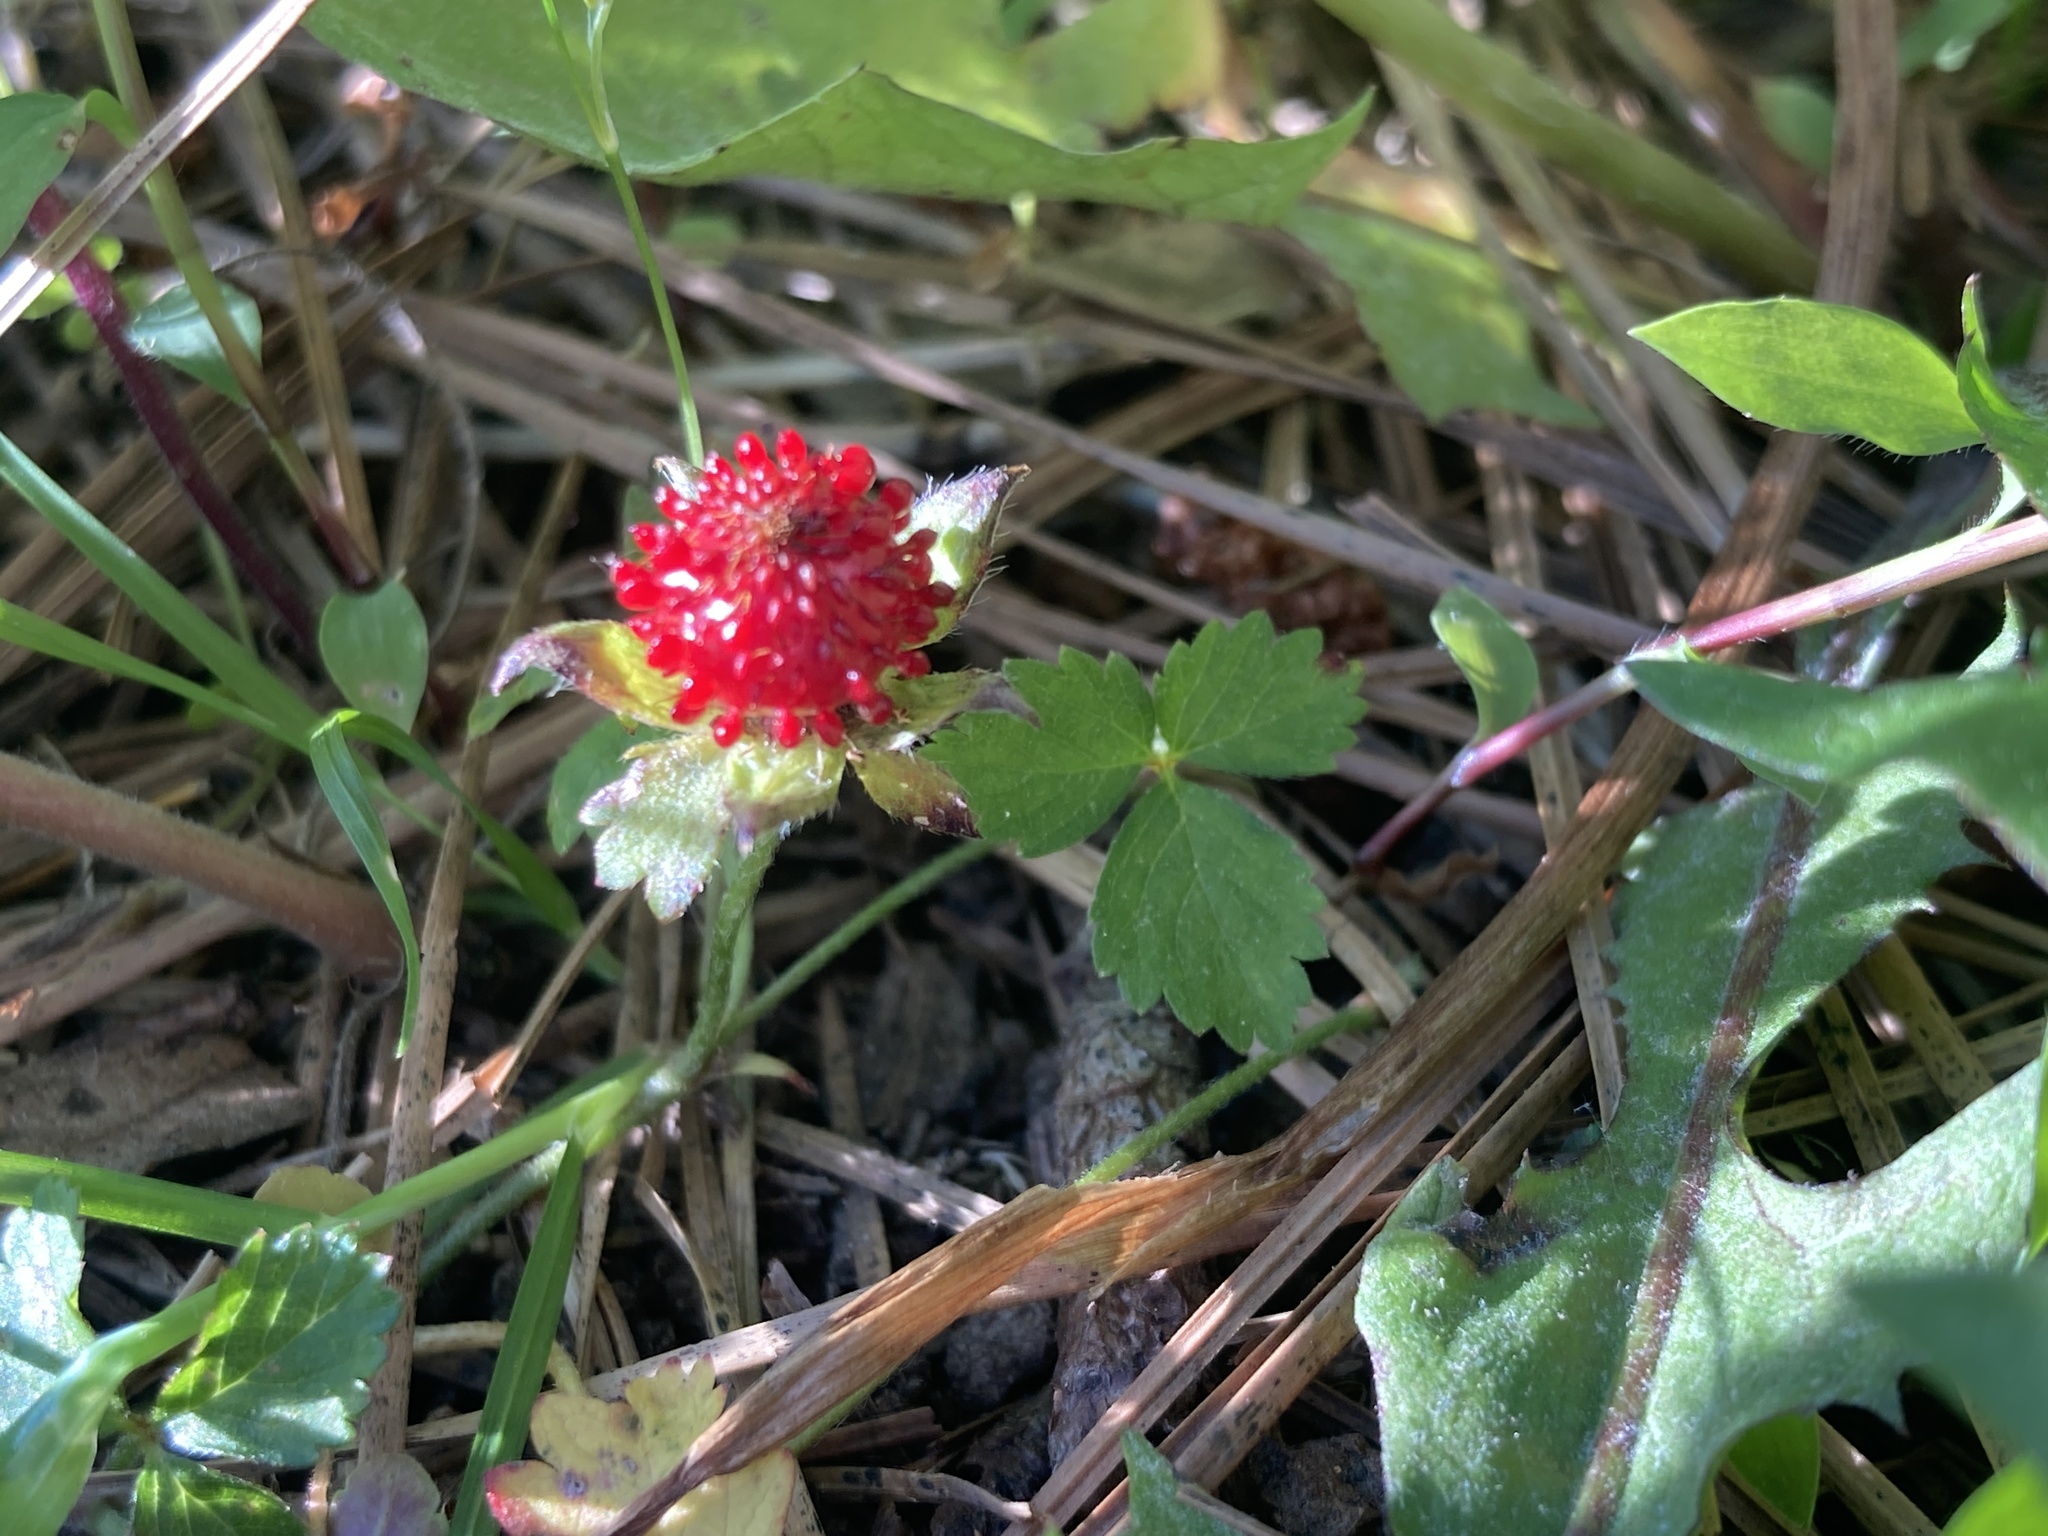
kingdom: Plantae
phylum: Tracheophyta
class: Magnoliopsida
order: Rosales
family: Rosaceae
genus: Potentilla
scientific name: Potentilla indica
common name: Yellow-flowered strawberry
